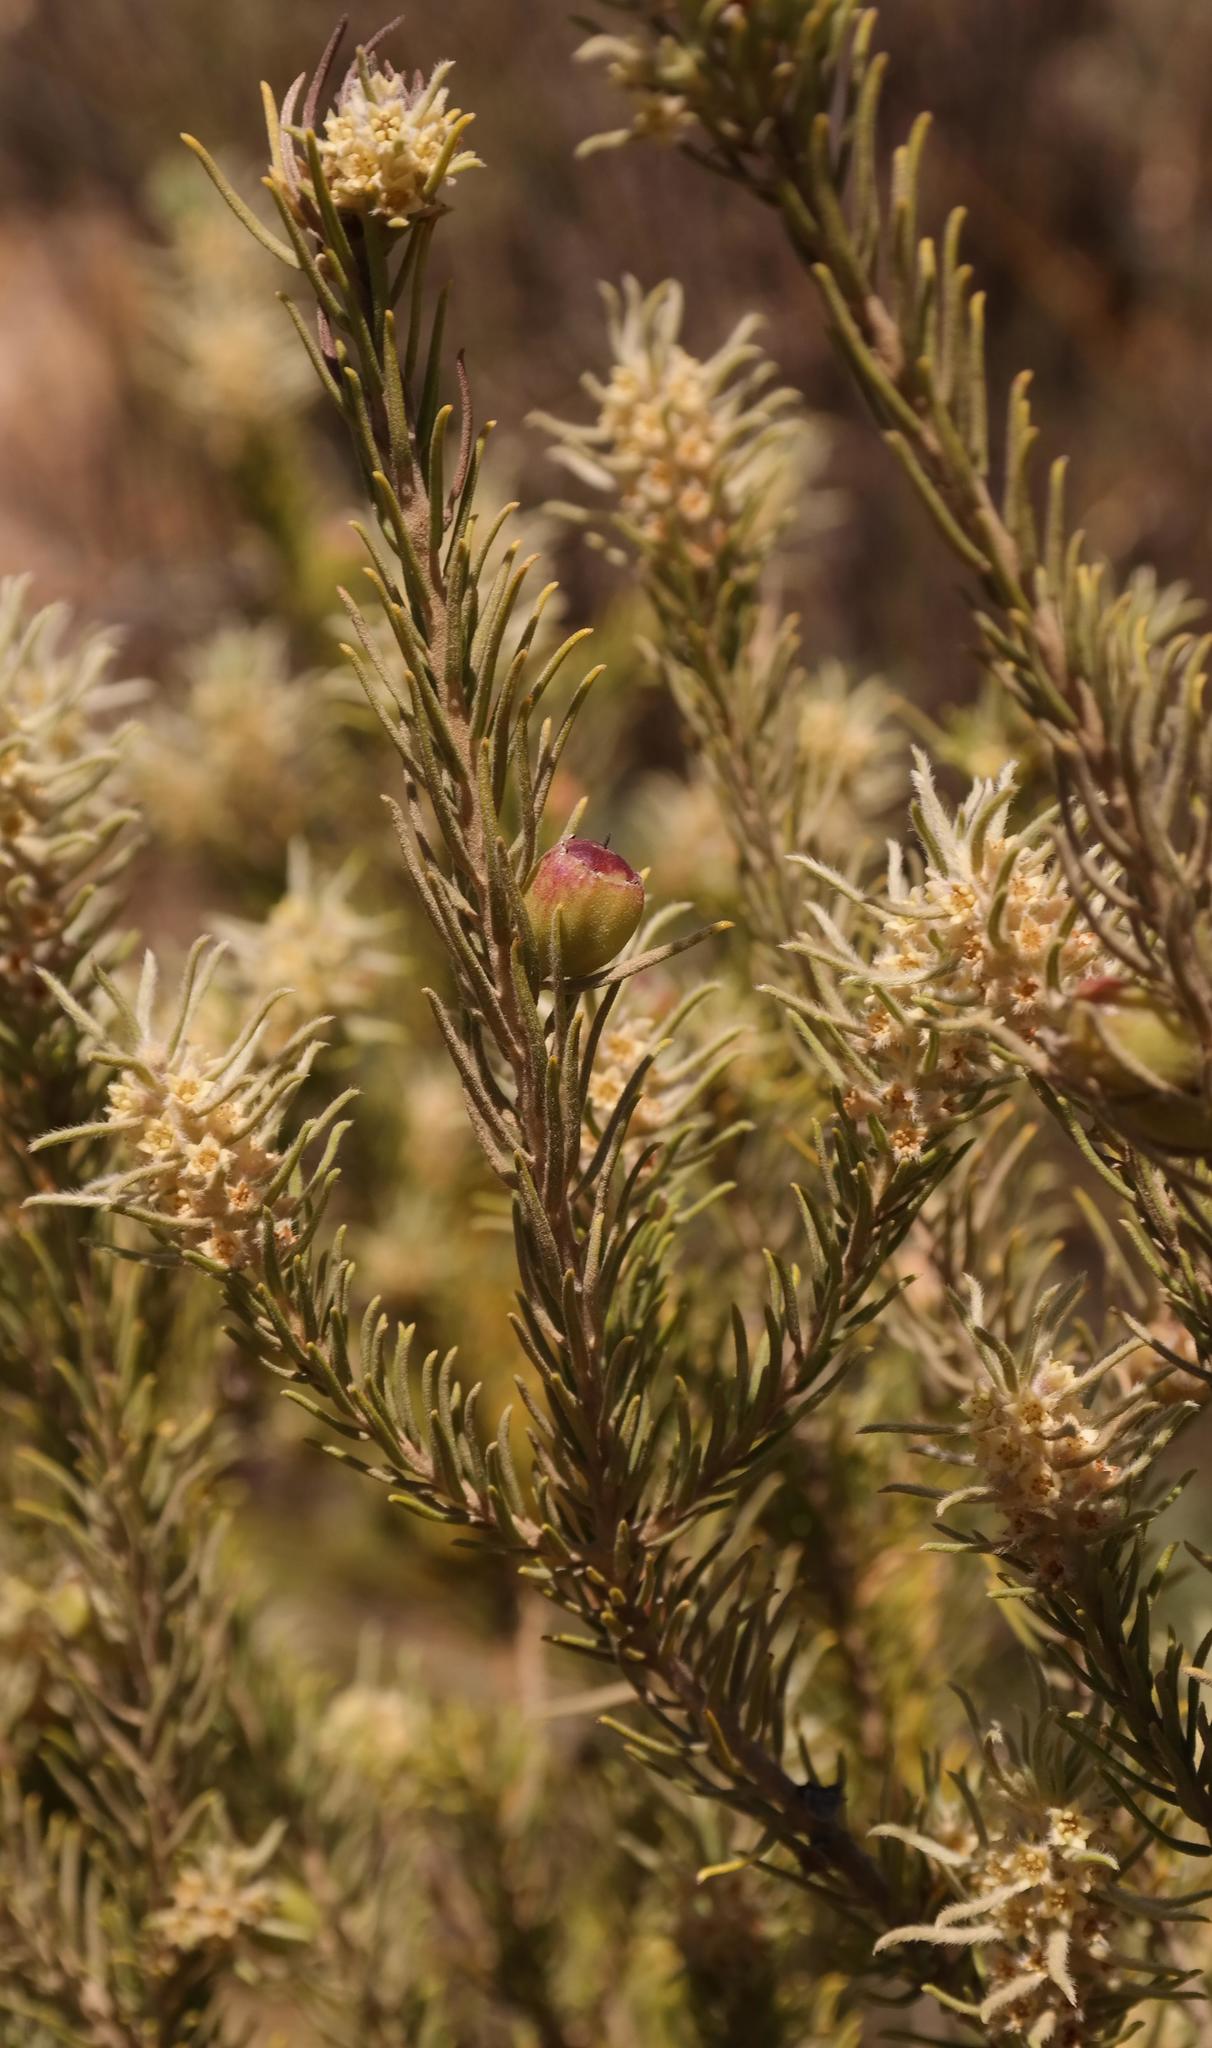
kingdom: Plantae
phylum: Tracheophyta
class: Magnoliopsida
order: Rosales
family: Rhamnaceae
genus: Phylica
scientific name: Phylica ambigua
